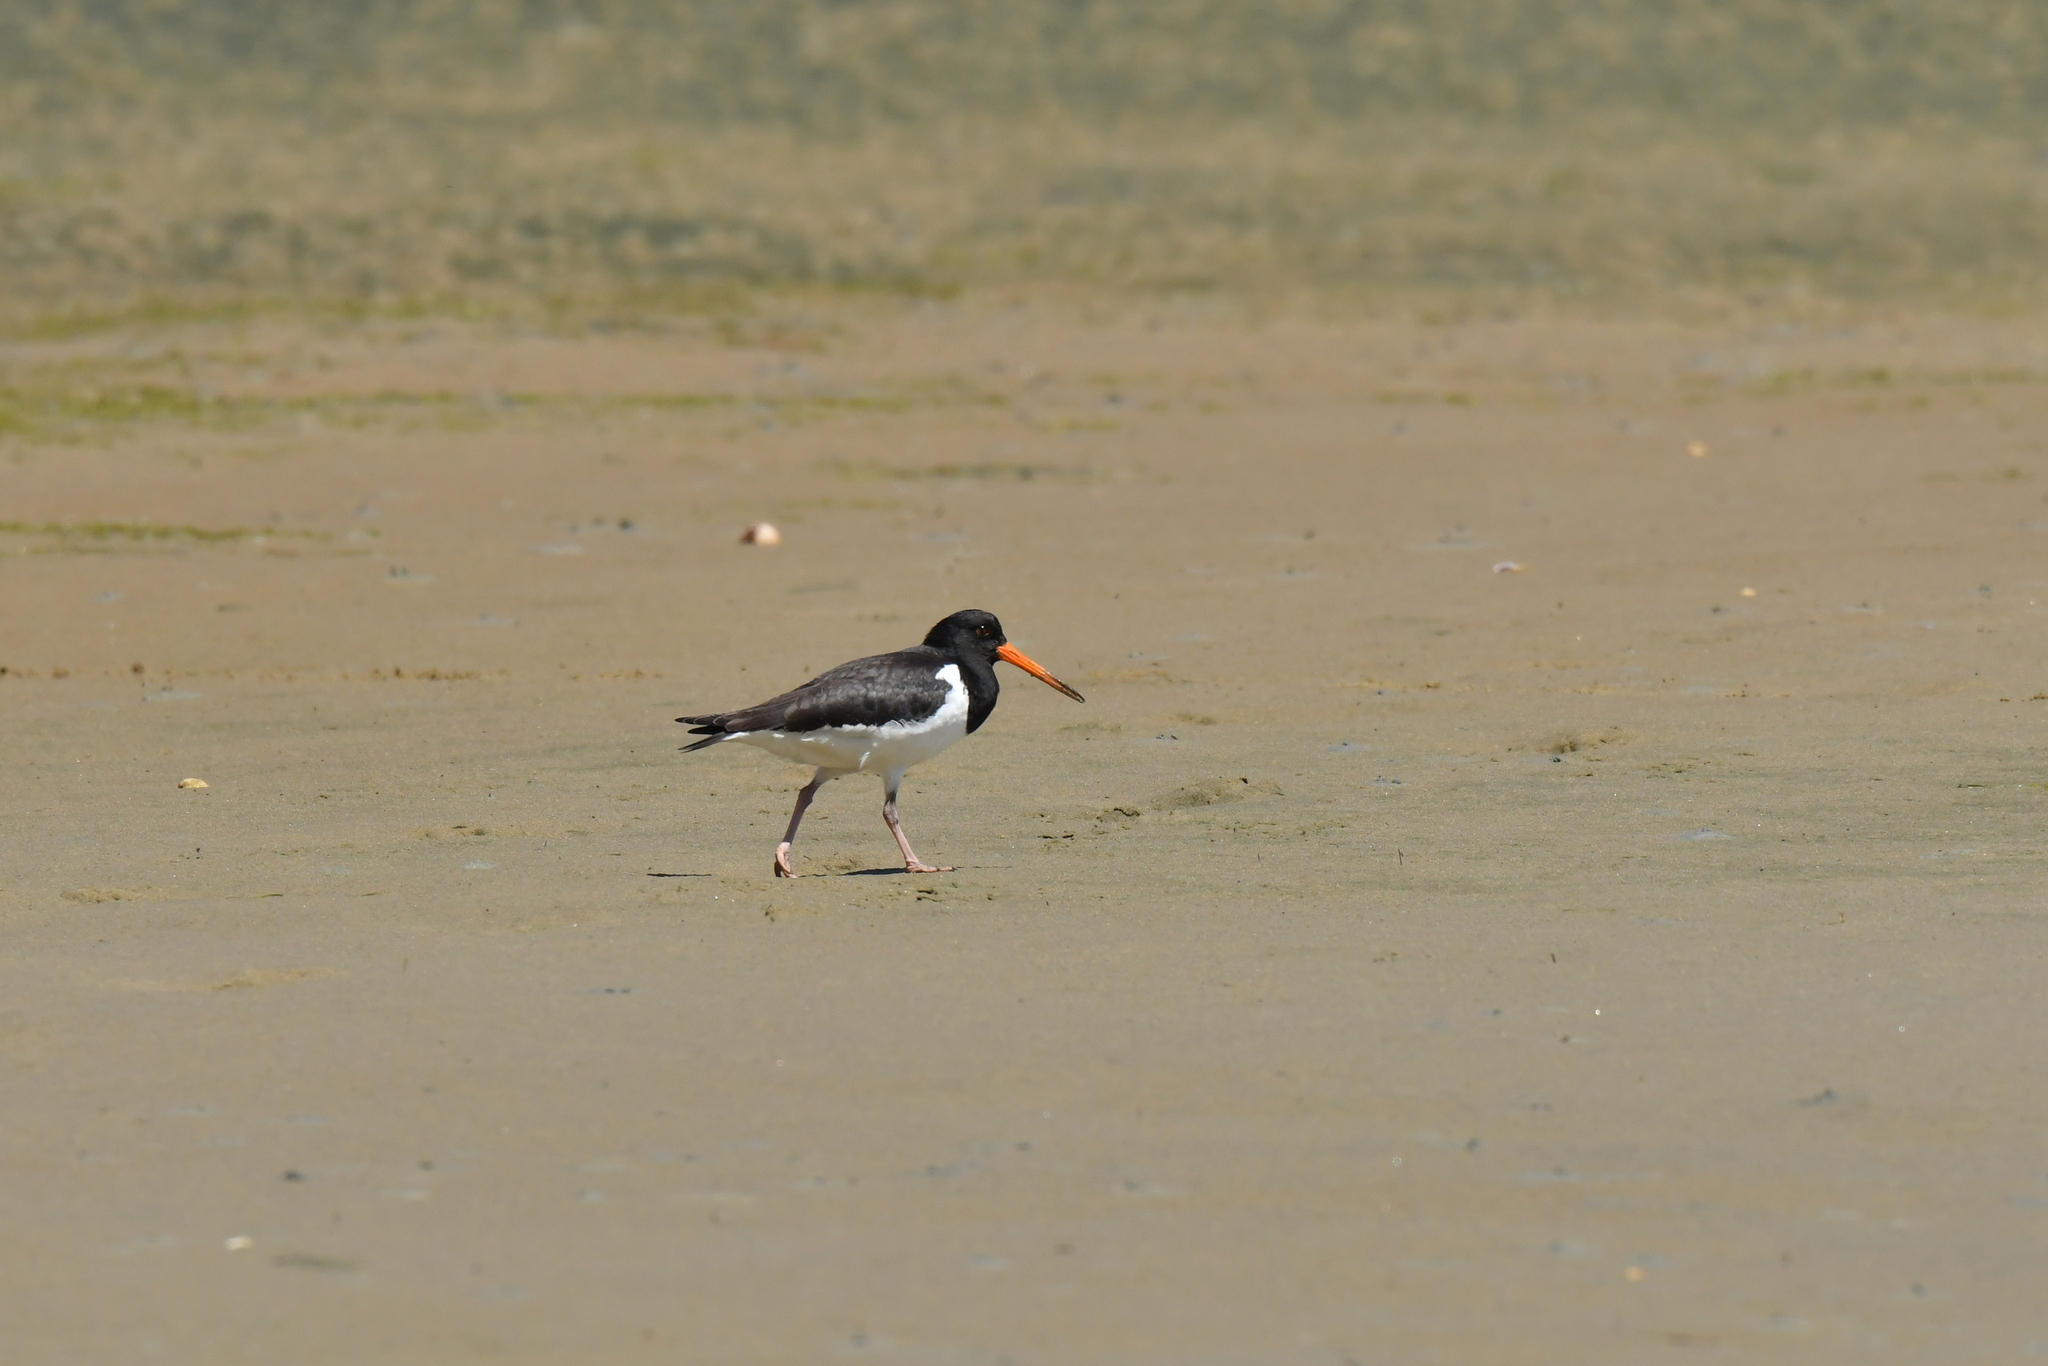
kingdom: Animalia
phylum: Chordata
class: Aves
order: Charadriiformes
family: Haematopodidae
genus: Haematopus
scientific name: Haematopus finschi
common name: South island oystercatcher
